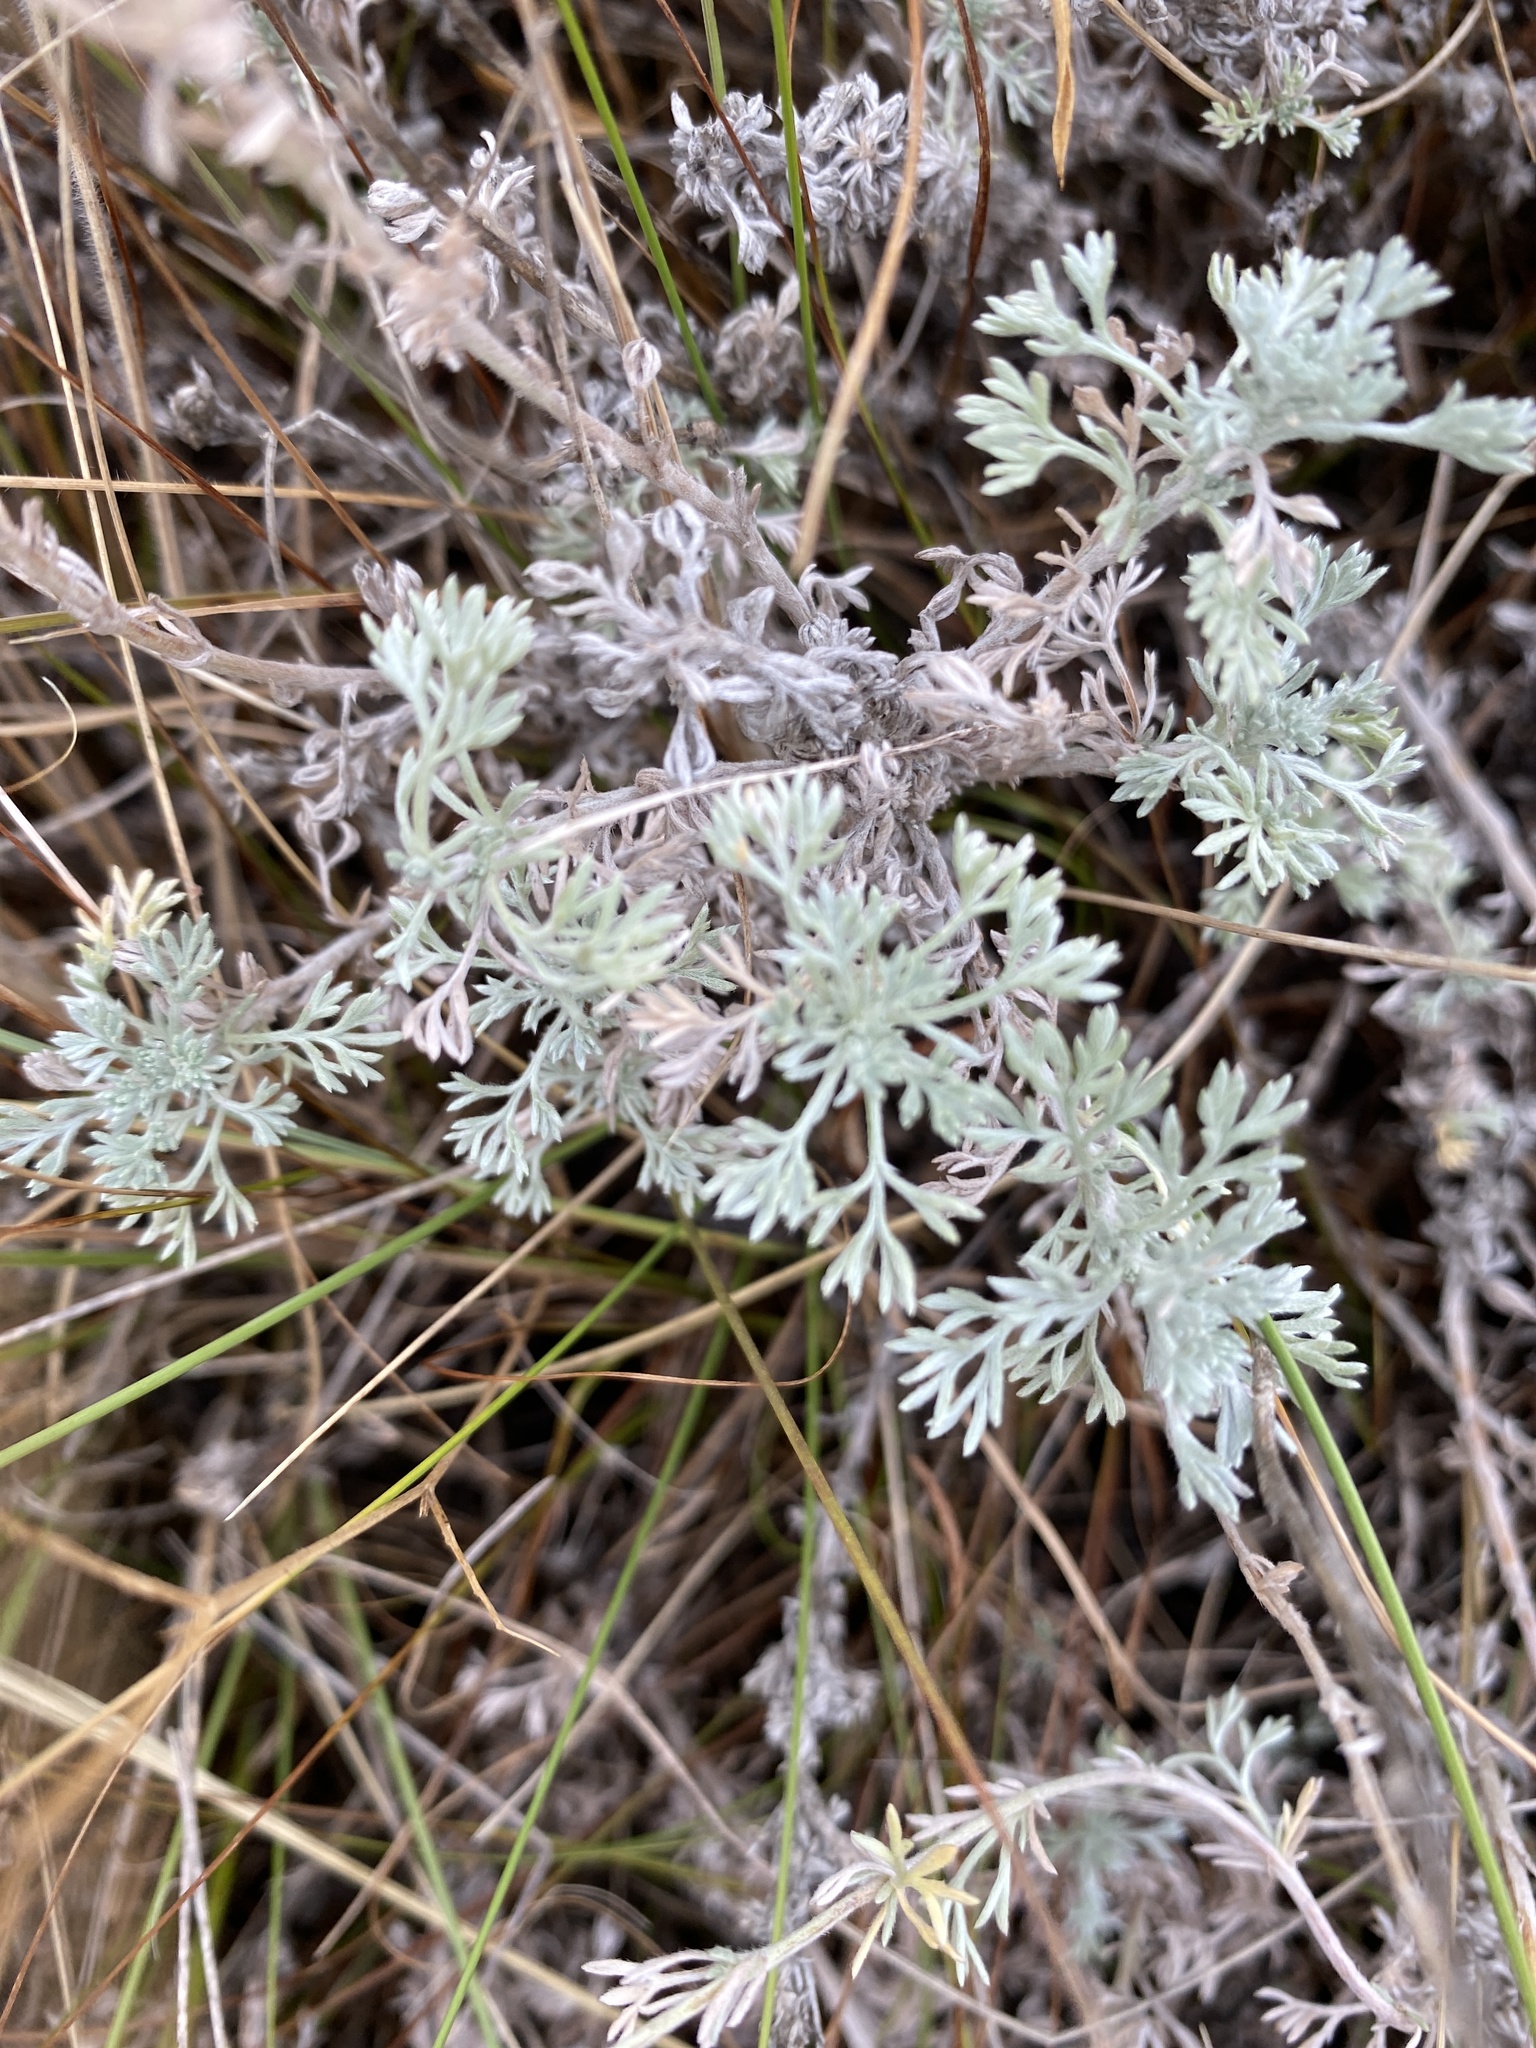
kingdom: Plantae
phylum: Tracheophyta
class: Magnoliopsida
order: Asterales
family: Asteraceae
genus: Artemisia
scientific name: Artemisia frigida
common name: Prairie sagewort
